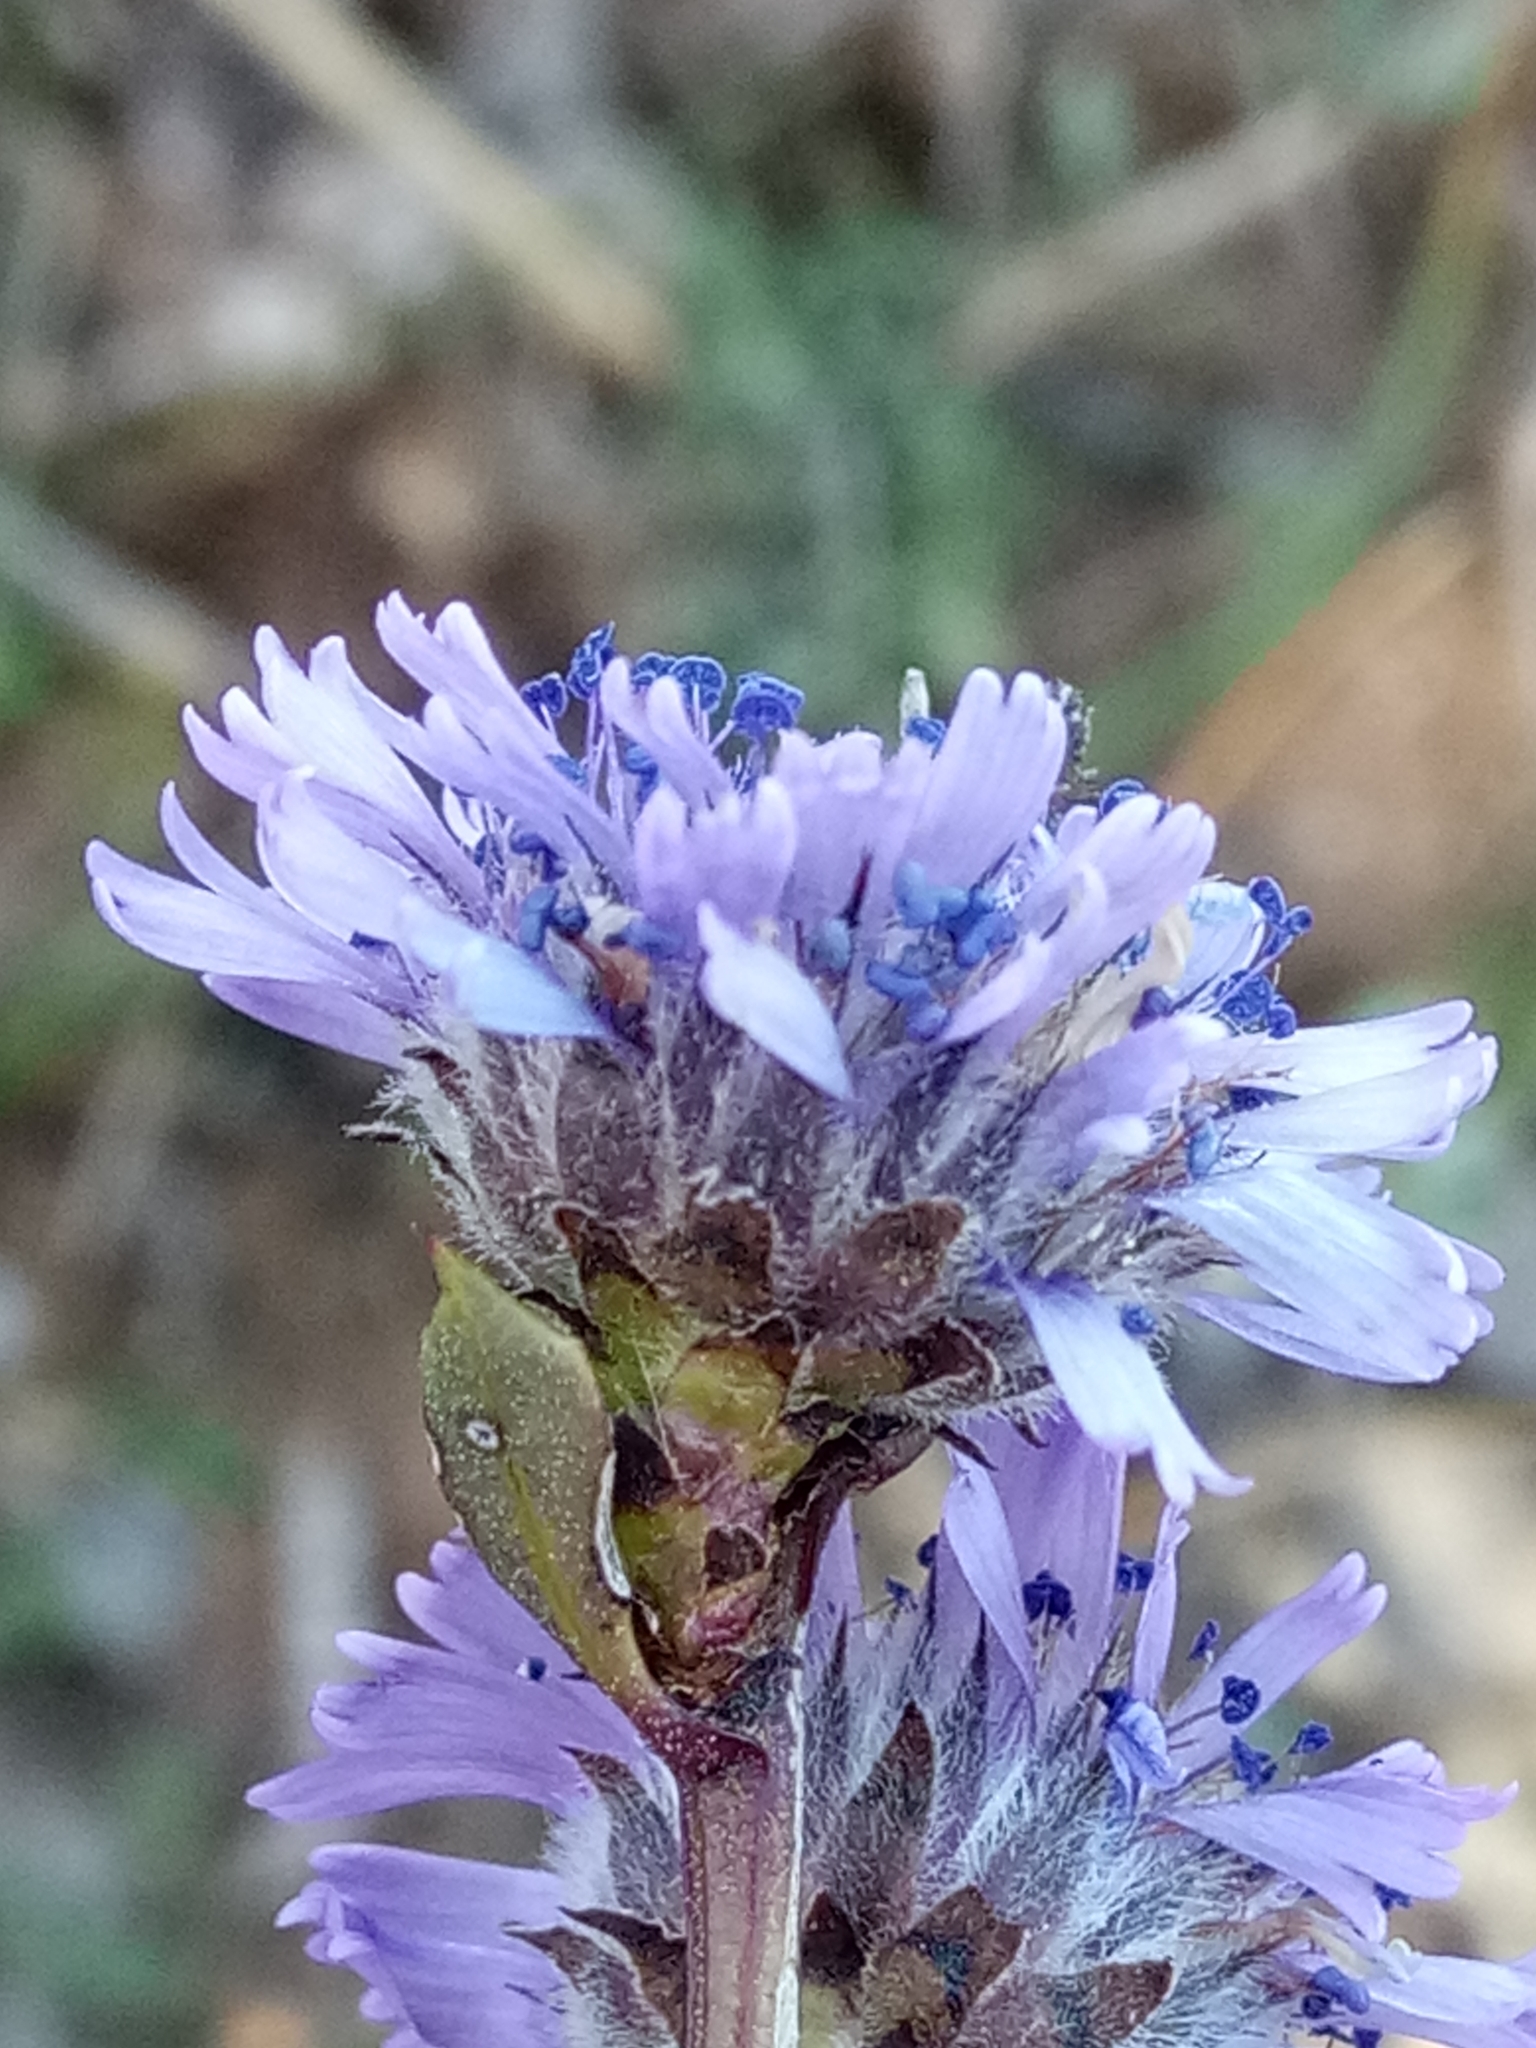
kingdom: Plantae
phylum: Tracheophyta
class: Magnoliopsida
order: Lamiales
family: Plantaginaceae
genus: Globularia
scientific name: Globularia alypum
